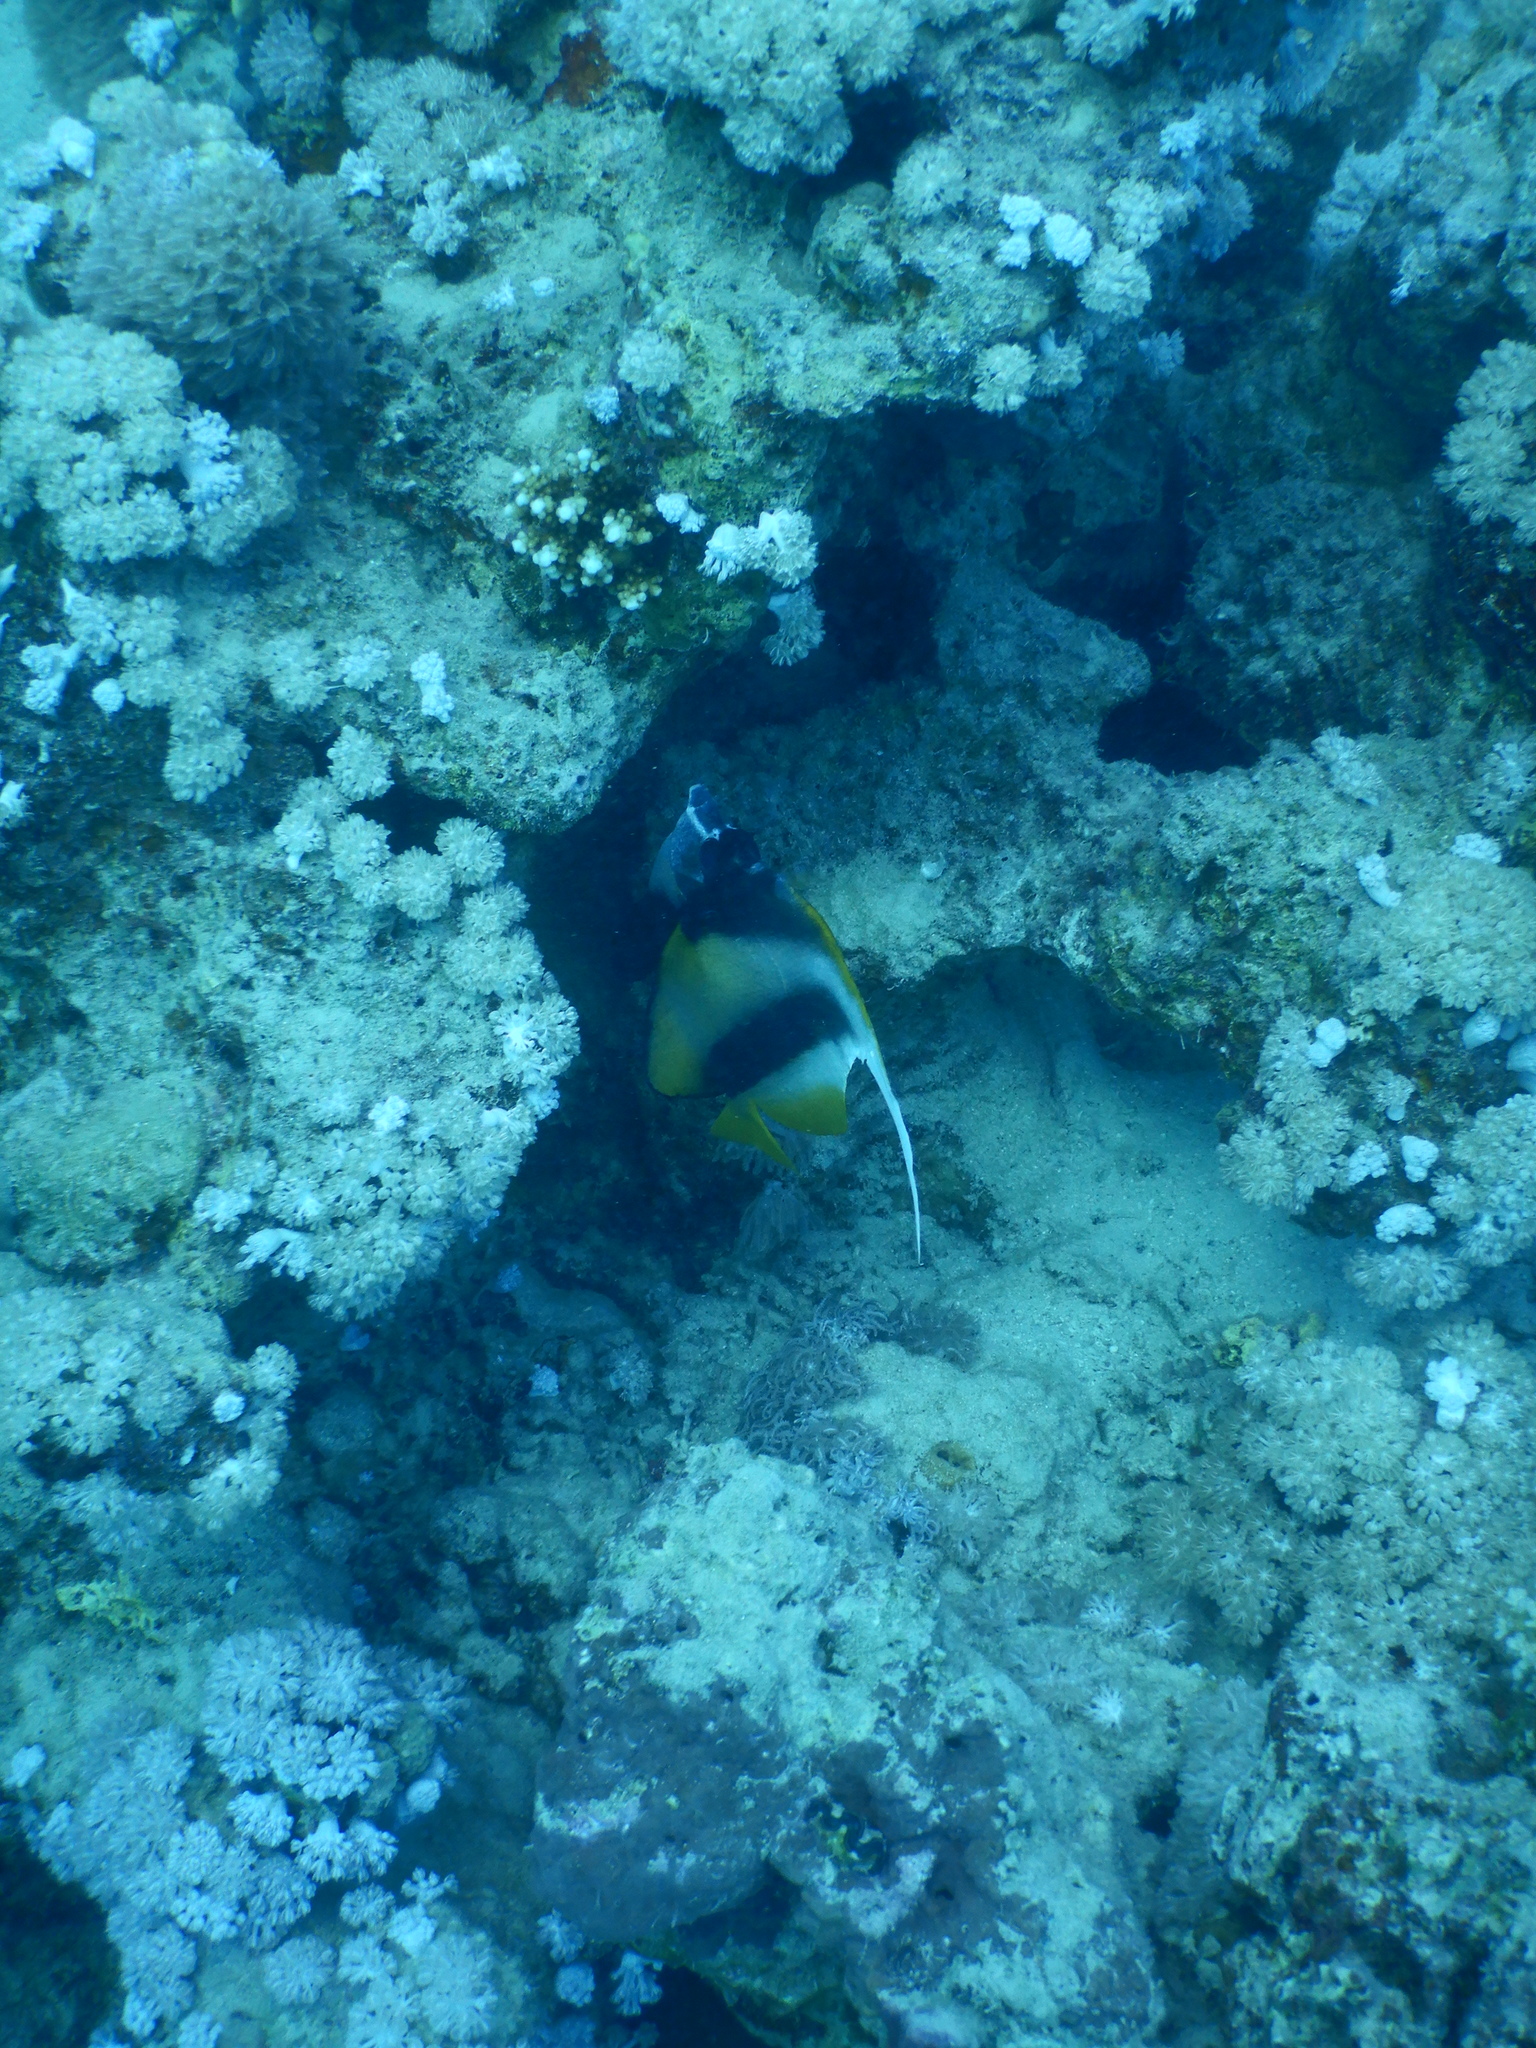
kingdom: Animalia
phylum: Chordata
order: Perciformes
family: Chaetodontidae
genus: Heniochus
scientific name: Heniochus intermedius
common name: Red sea bannerfish
